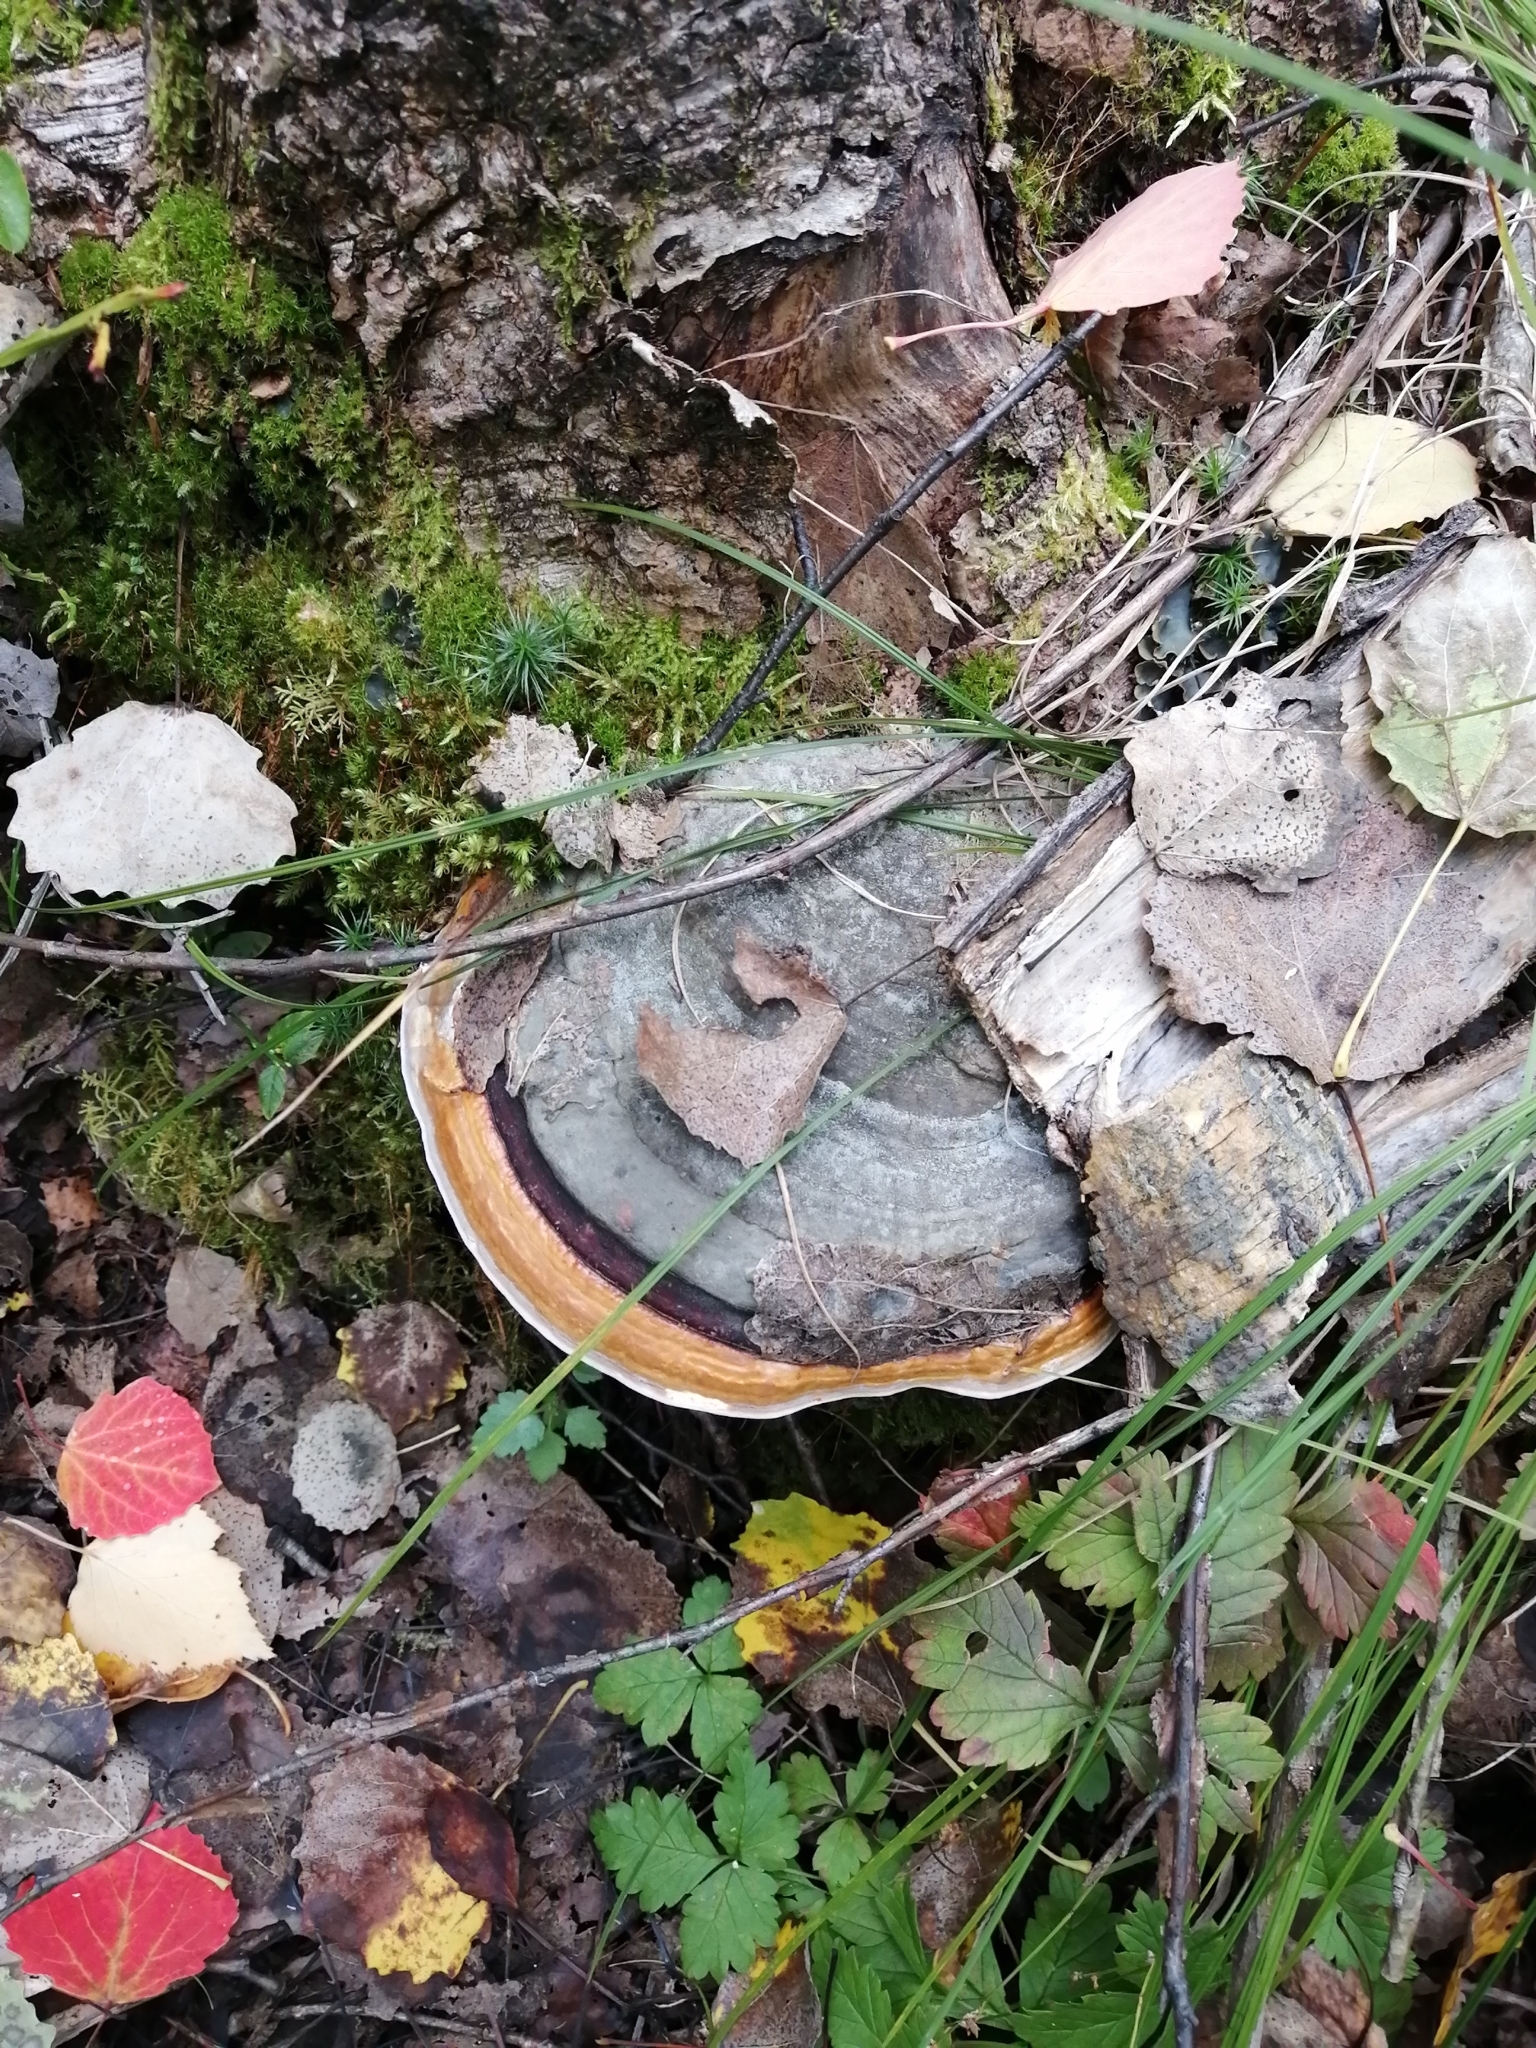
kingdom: Fungi
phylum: Basidiomycota
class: Agaricomycetes
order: Polyporales
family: Fomitopsidaceae
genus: Fomitopsis
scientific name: Fomitopsis pinicola
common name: Red-belted bracket
